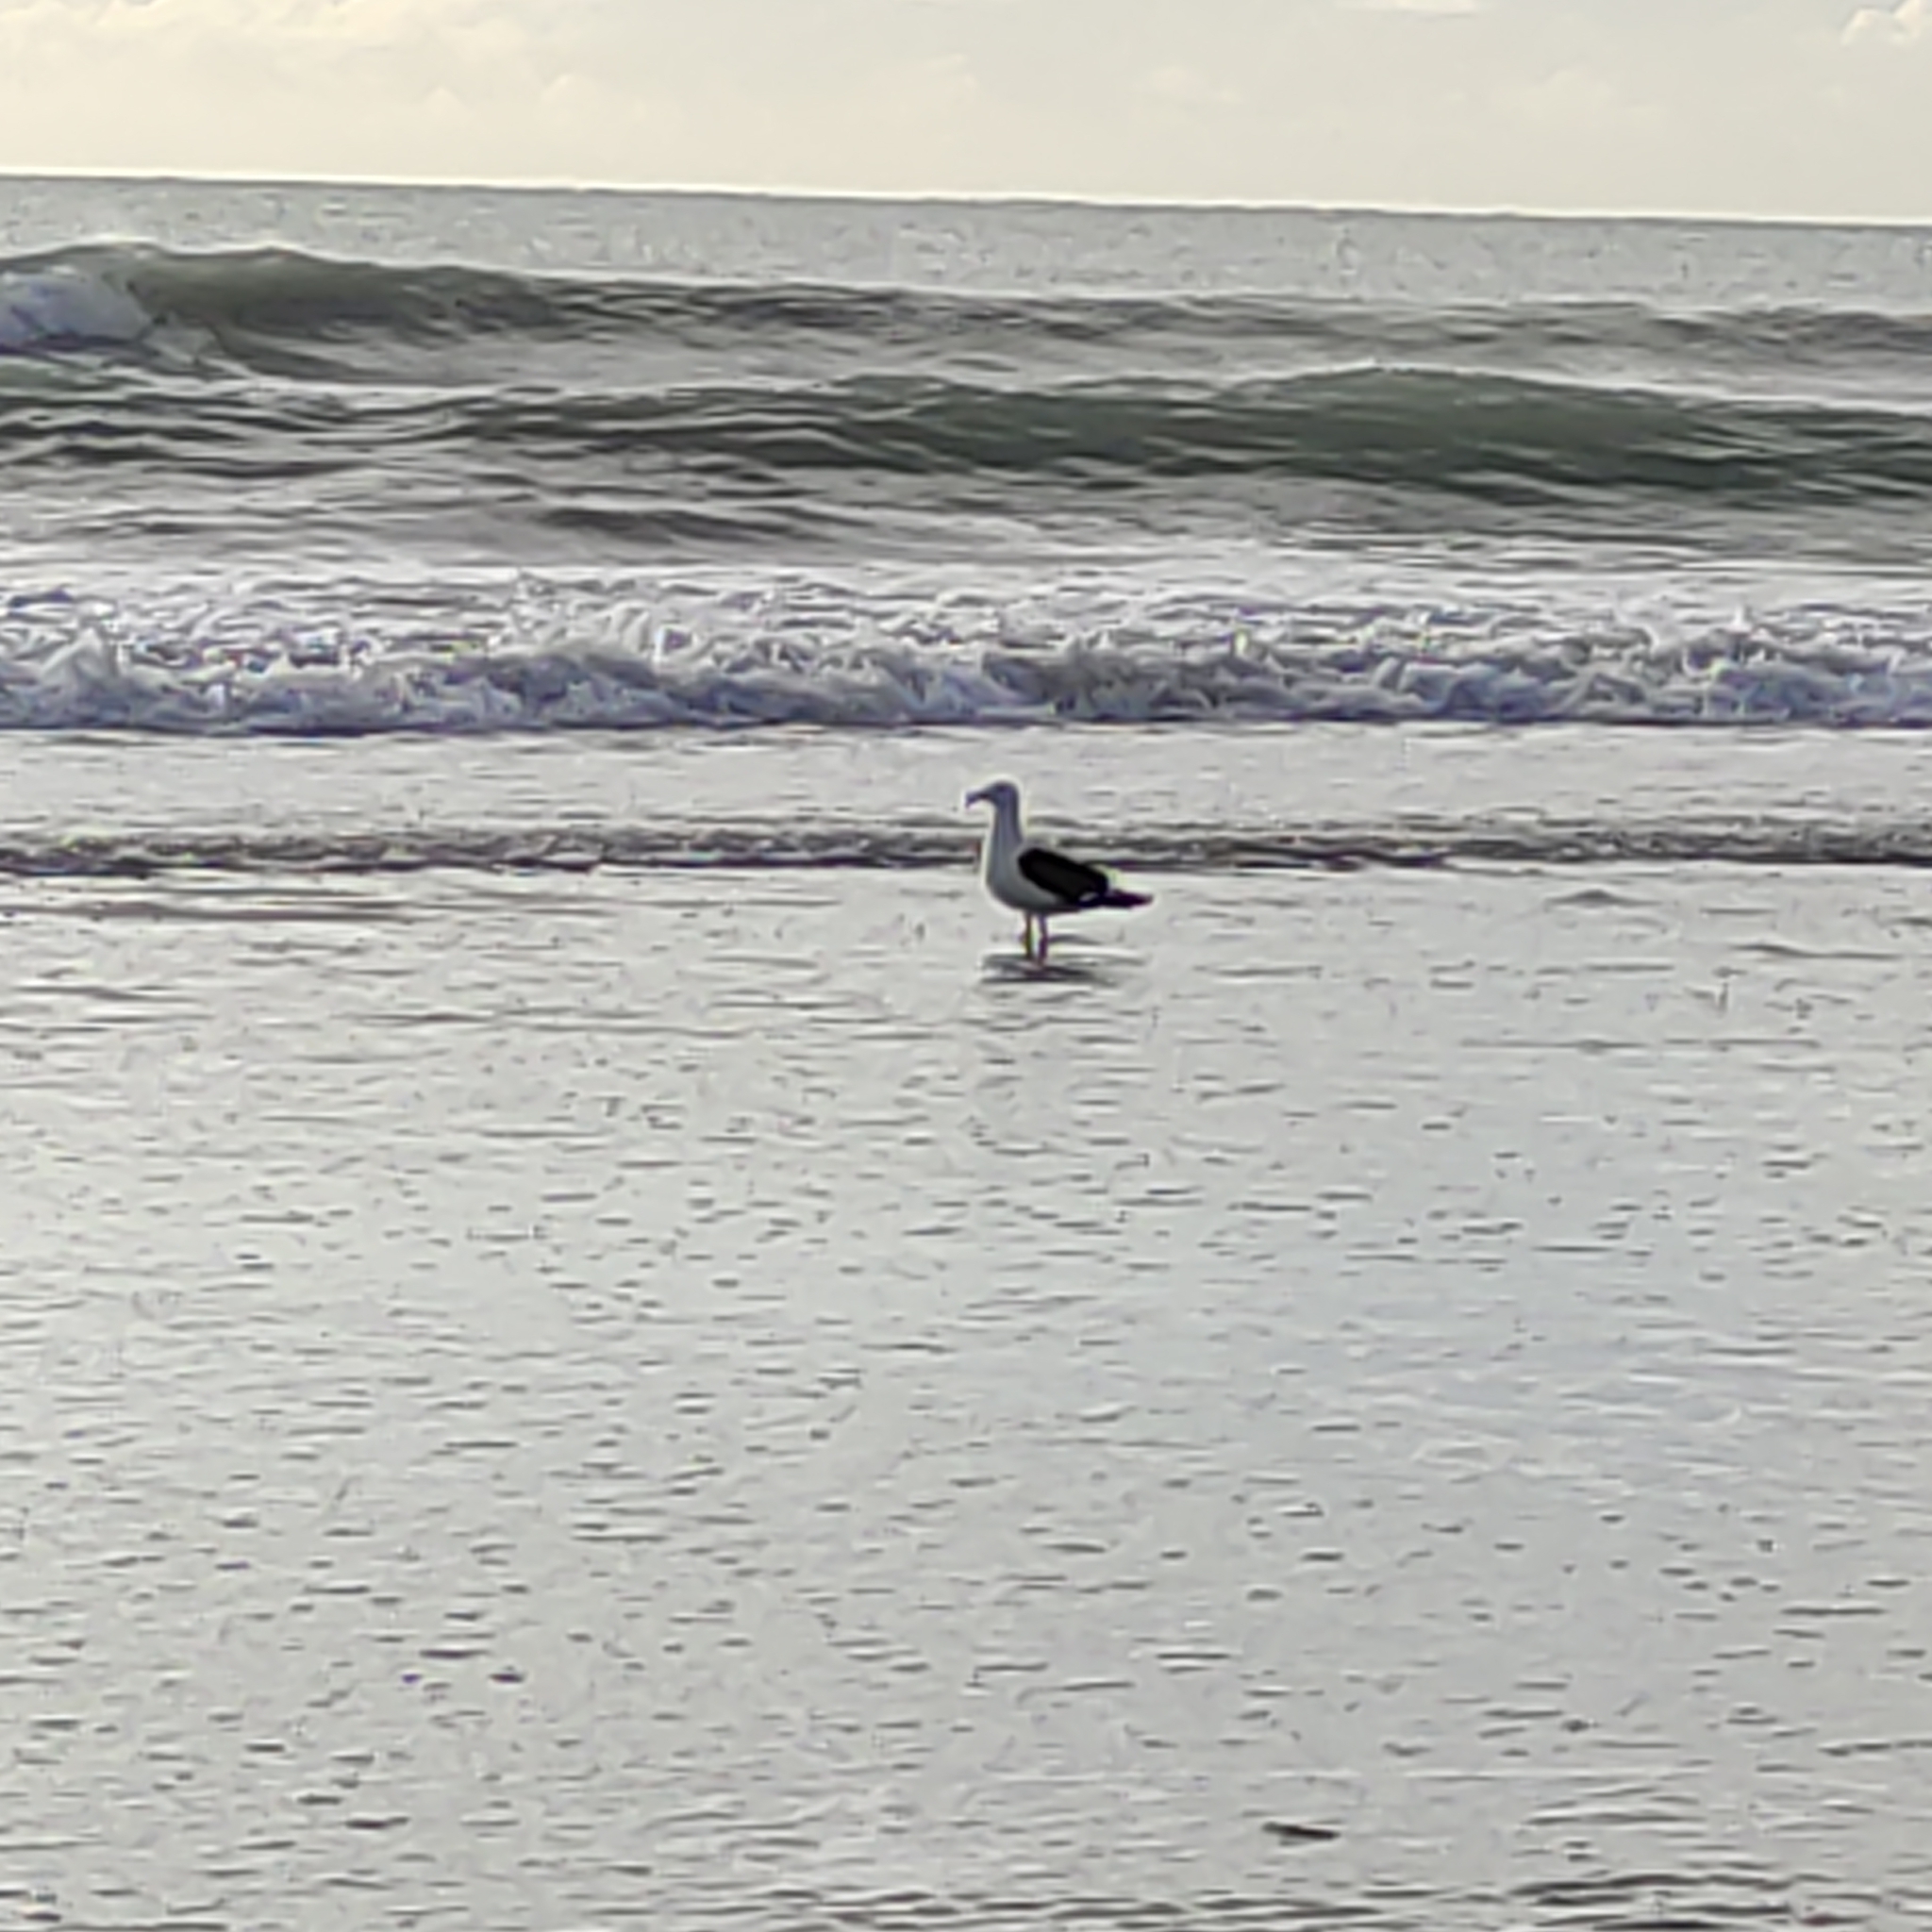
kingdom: Animalia
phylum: Chordata
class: Aves
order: Charadriiformes
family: Laridae
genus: Larus
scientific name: Larus dominicanus
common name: Kelp gull
